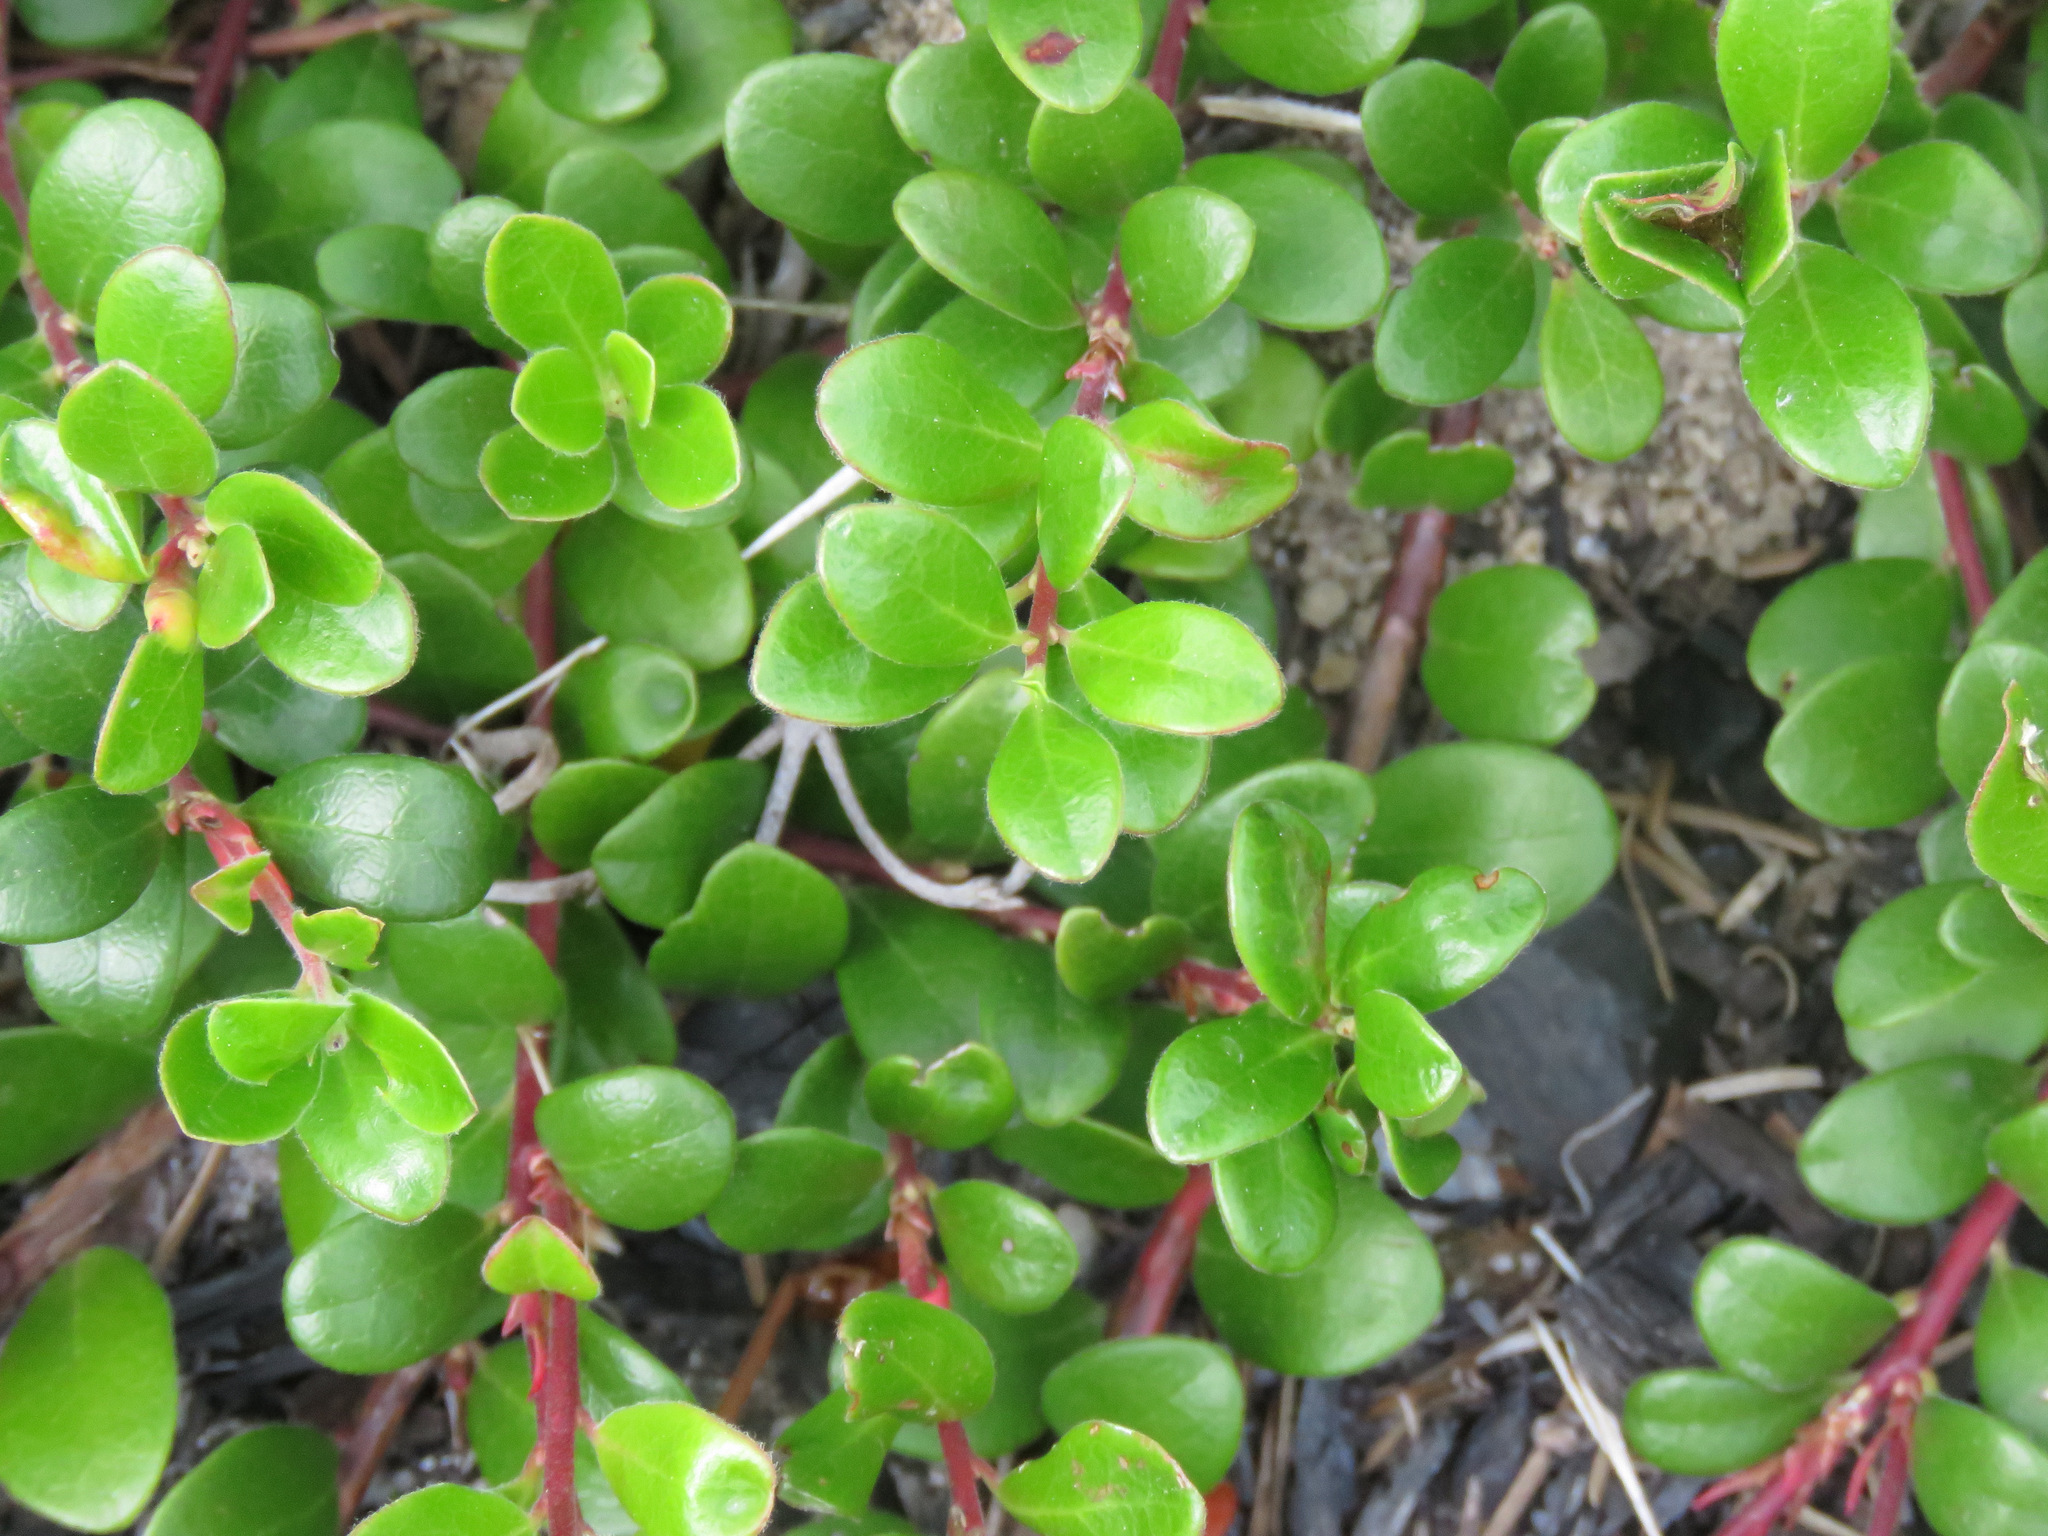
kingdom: Plantae
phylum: Tracheophyta
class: Magnoliopsida
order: Ericales
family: Ericaceae
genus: Arctostaphylos
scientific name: Arctostaphylos uva-ursi
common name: Bearberry
